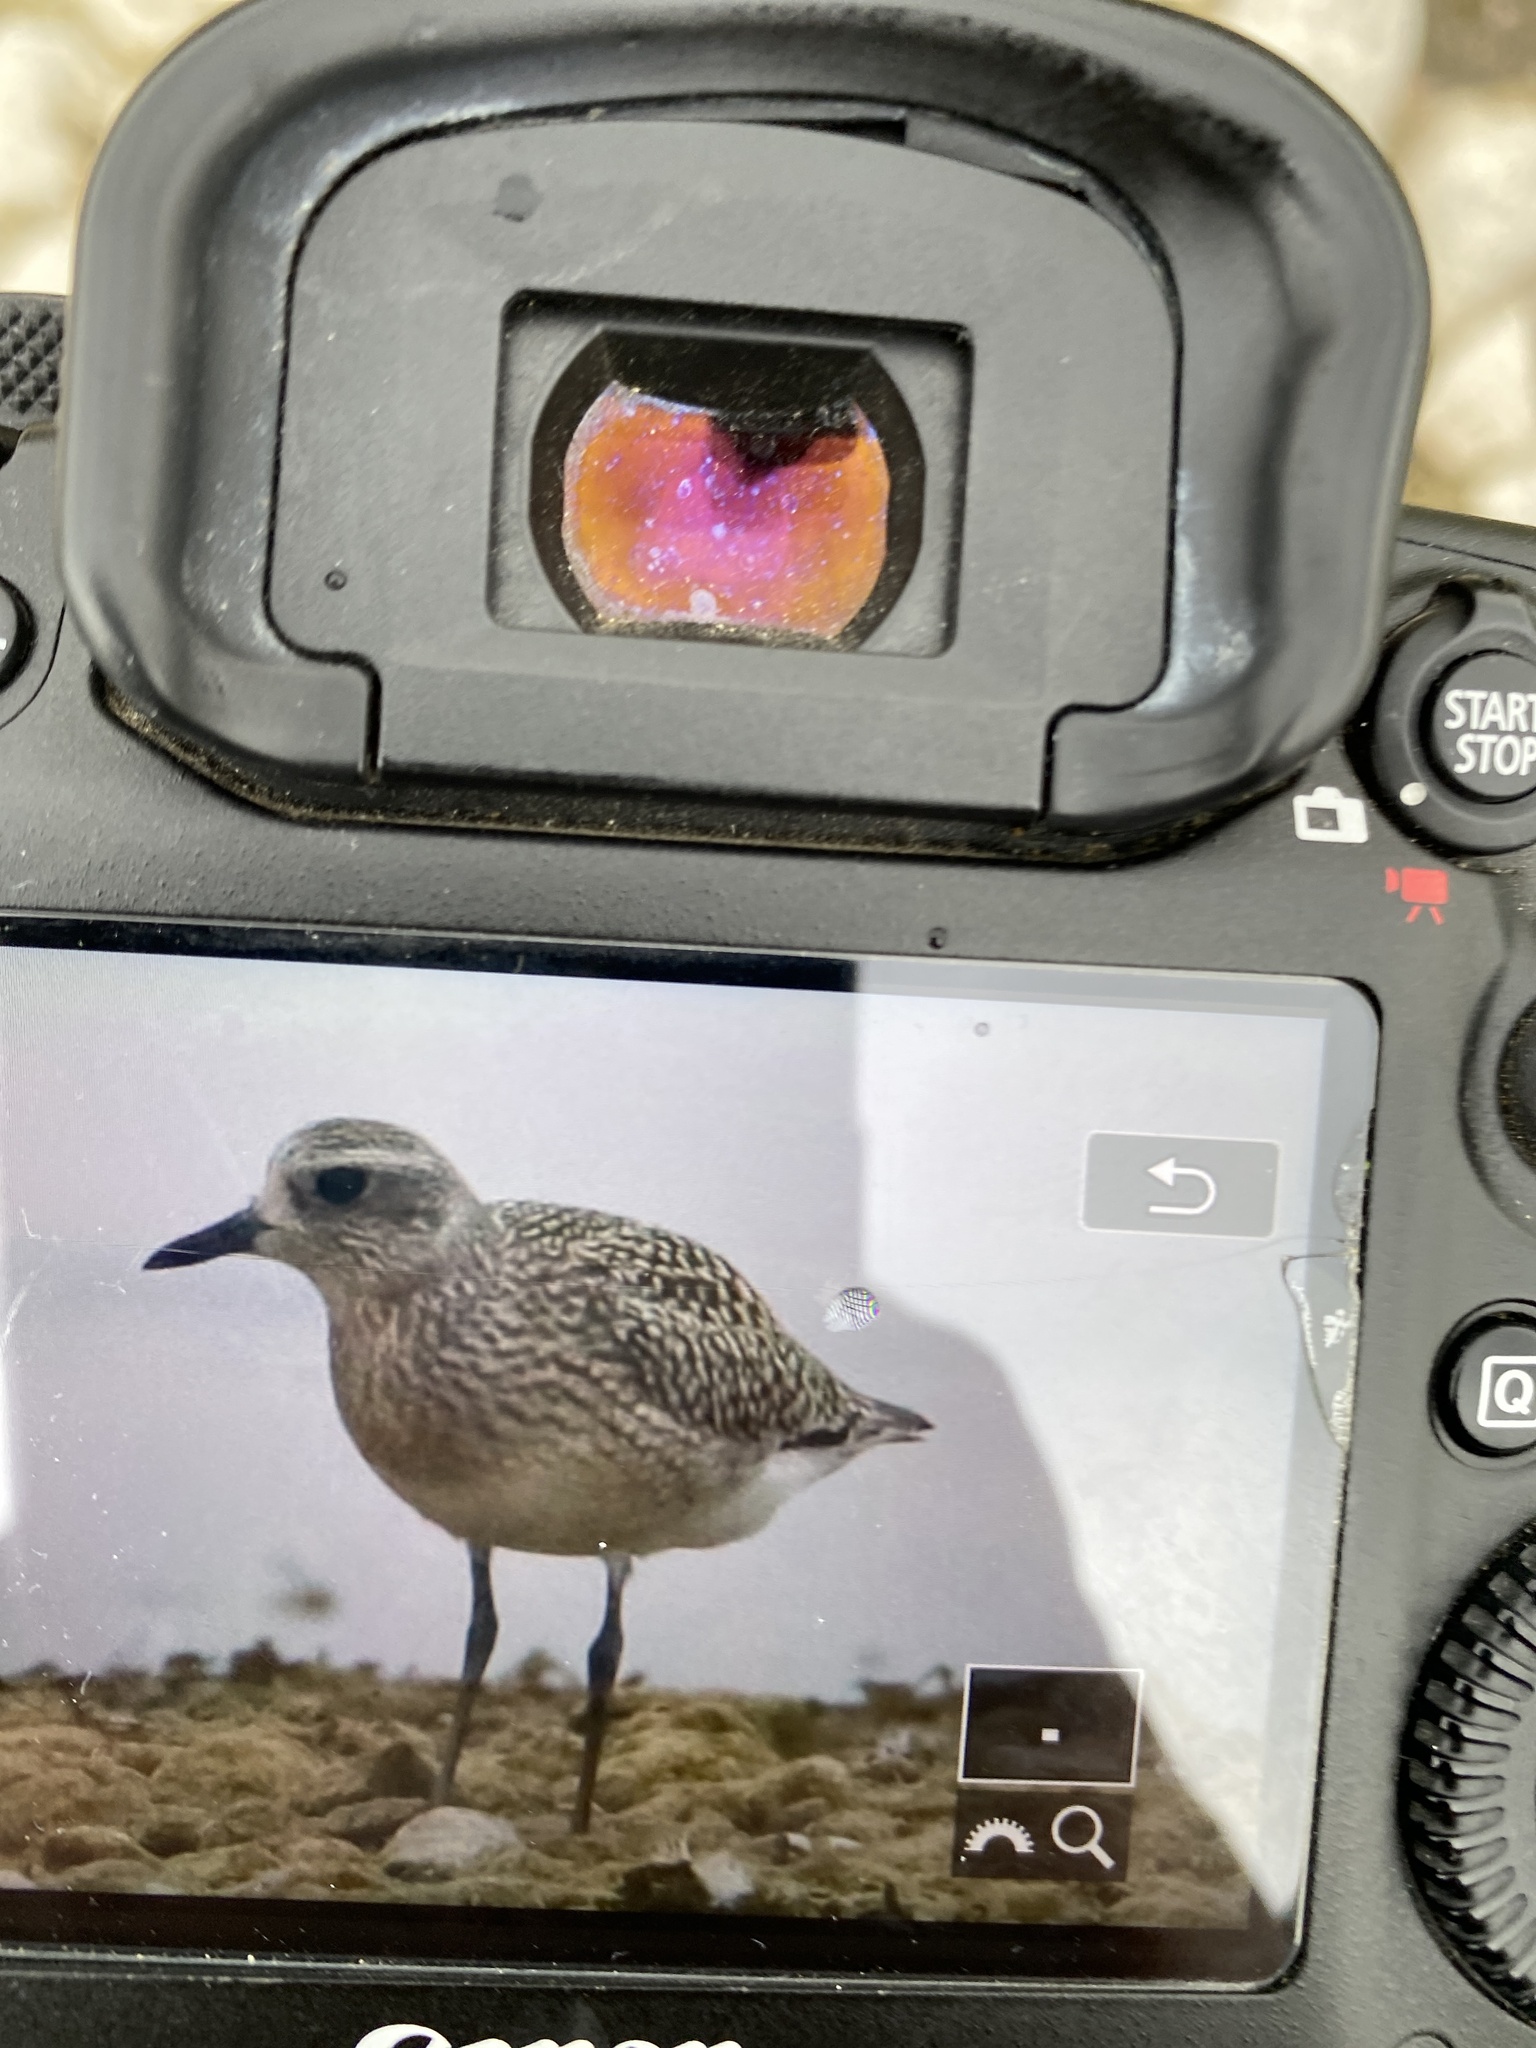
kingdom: Animalia
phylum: Chordata
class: Aves
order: Charadriiformes
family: Charadriidae
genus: Pluvialis
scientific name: Pluvialis squatarola
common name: Grey plover
